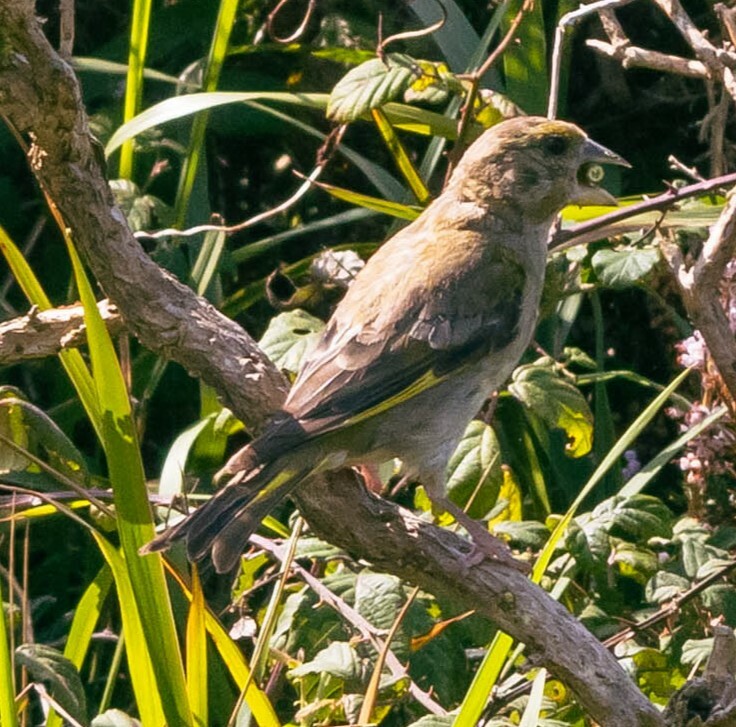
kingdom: Plantae
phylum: Tracheophyta
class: Liliopsida
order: Poales
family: Poaceae
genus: Chloris
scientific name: Chloris chloris
